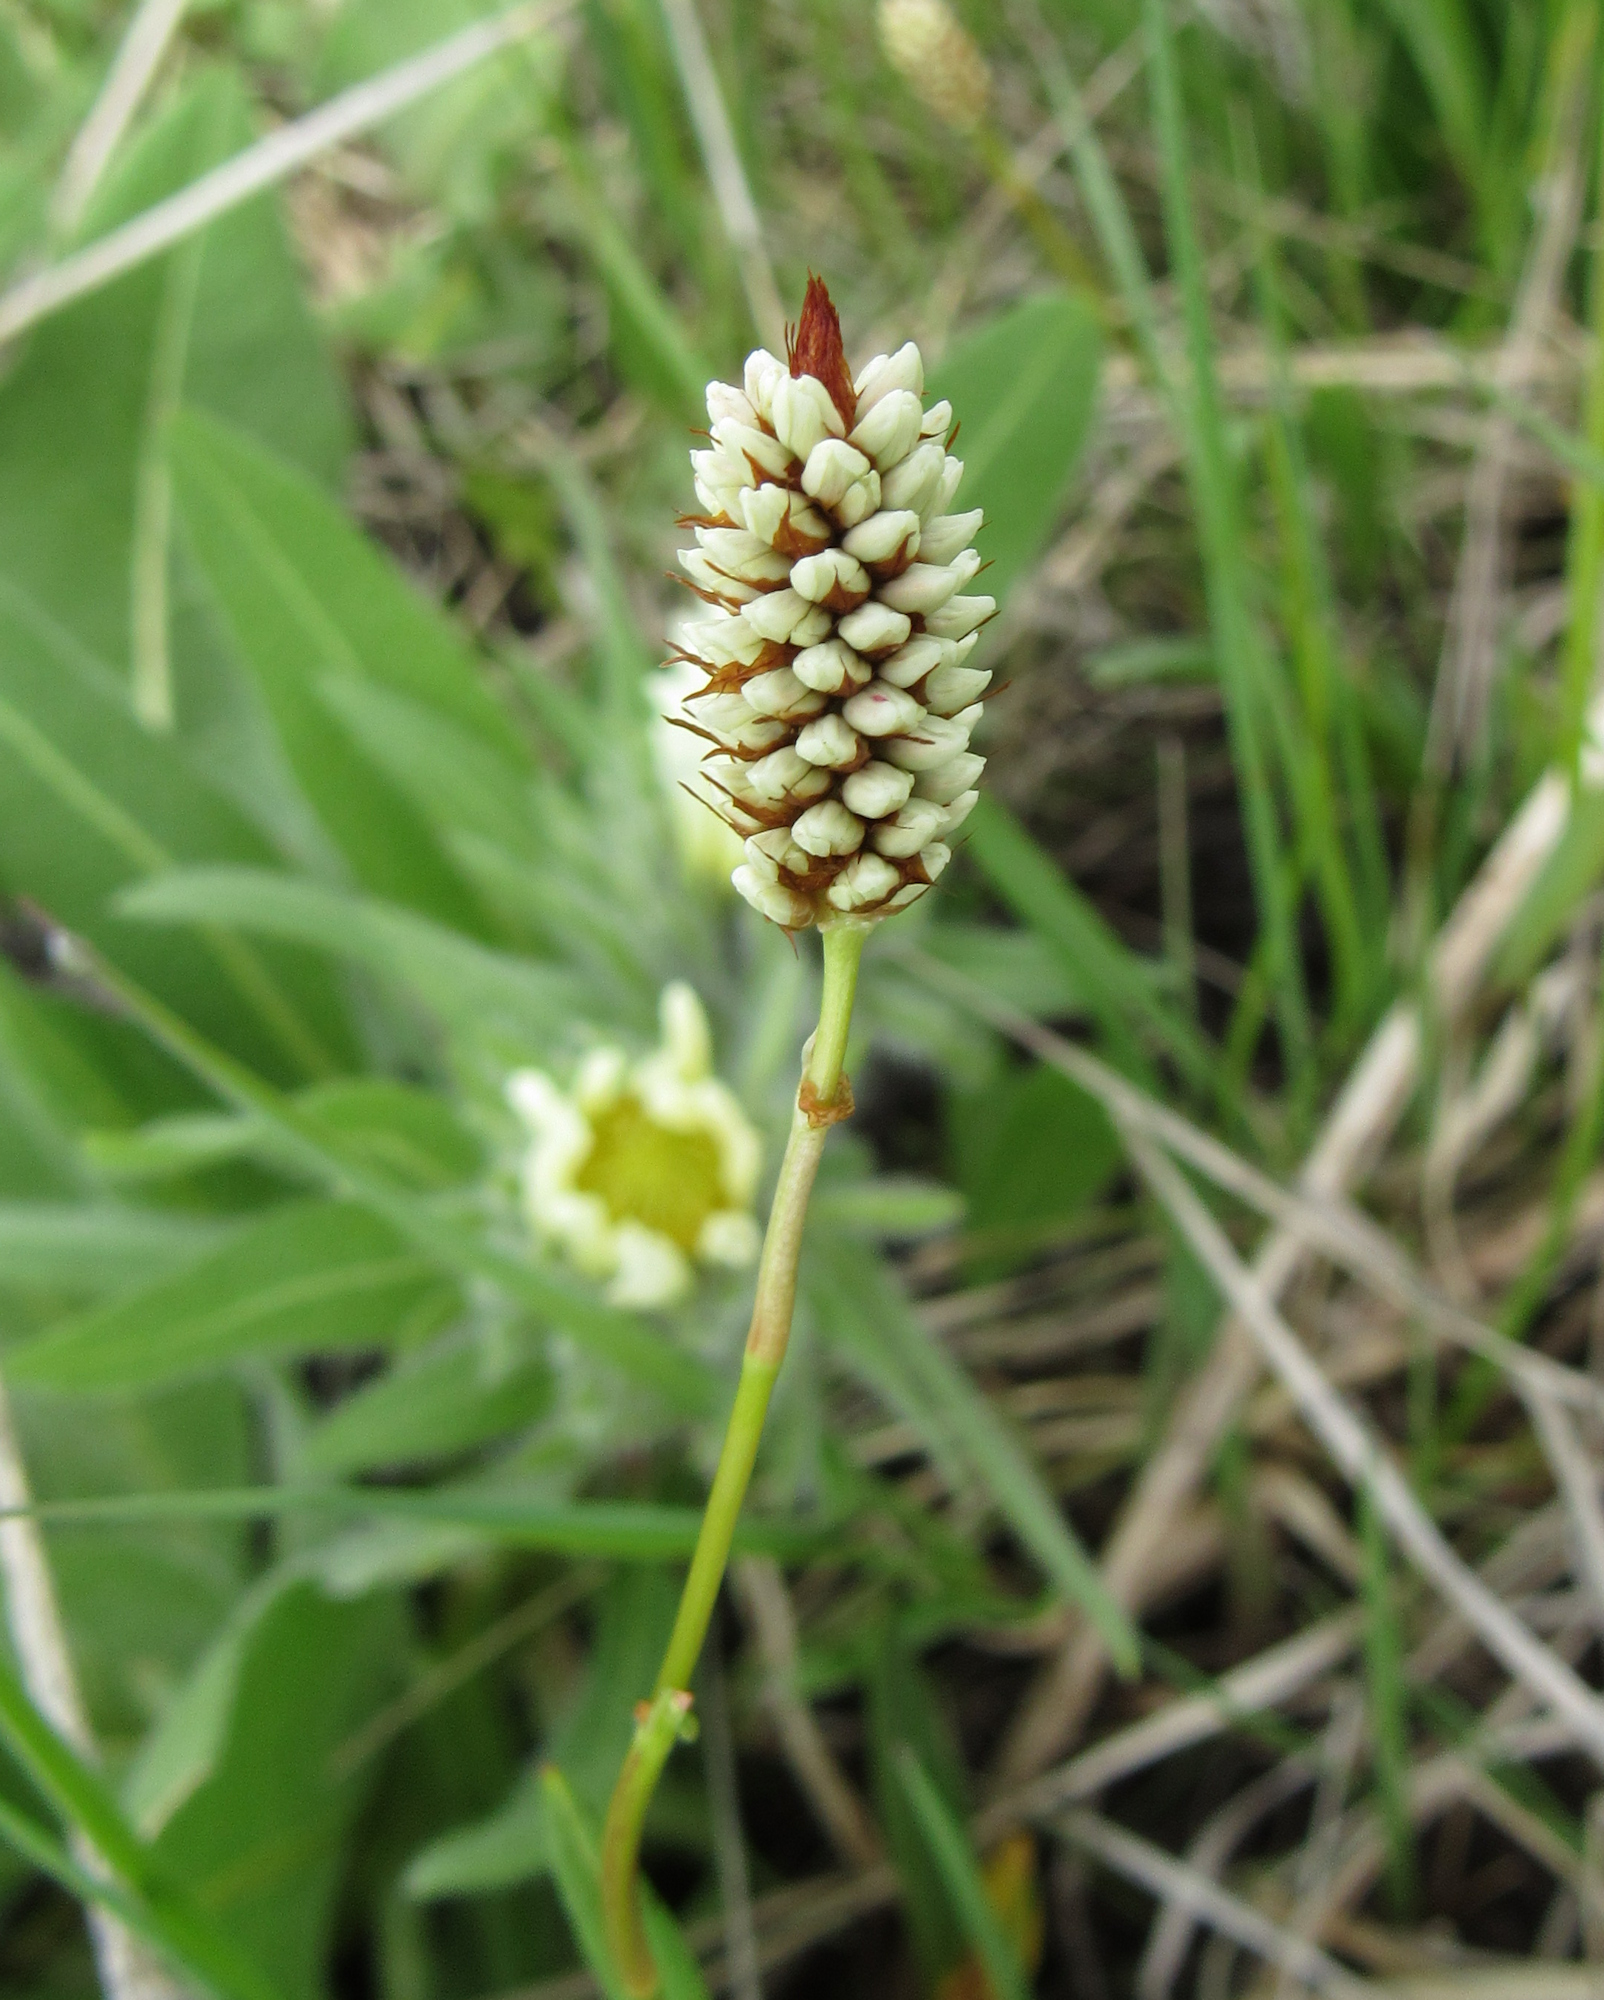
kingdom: Plantae
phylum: Tracheophyta
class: Magnoliopsida
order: Caryophyllales
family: Polygonaceae
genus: Bistorta
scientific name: Bistorta bistortoides
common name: American bistort
